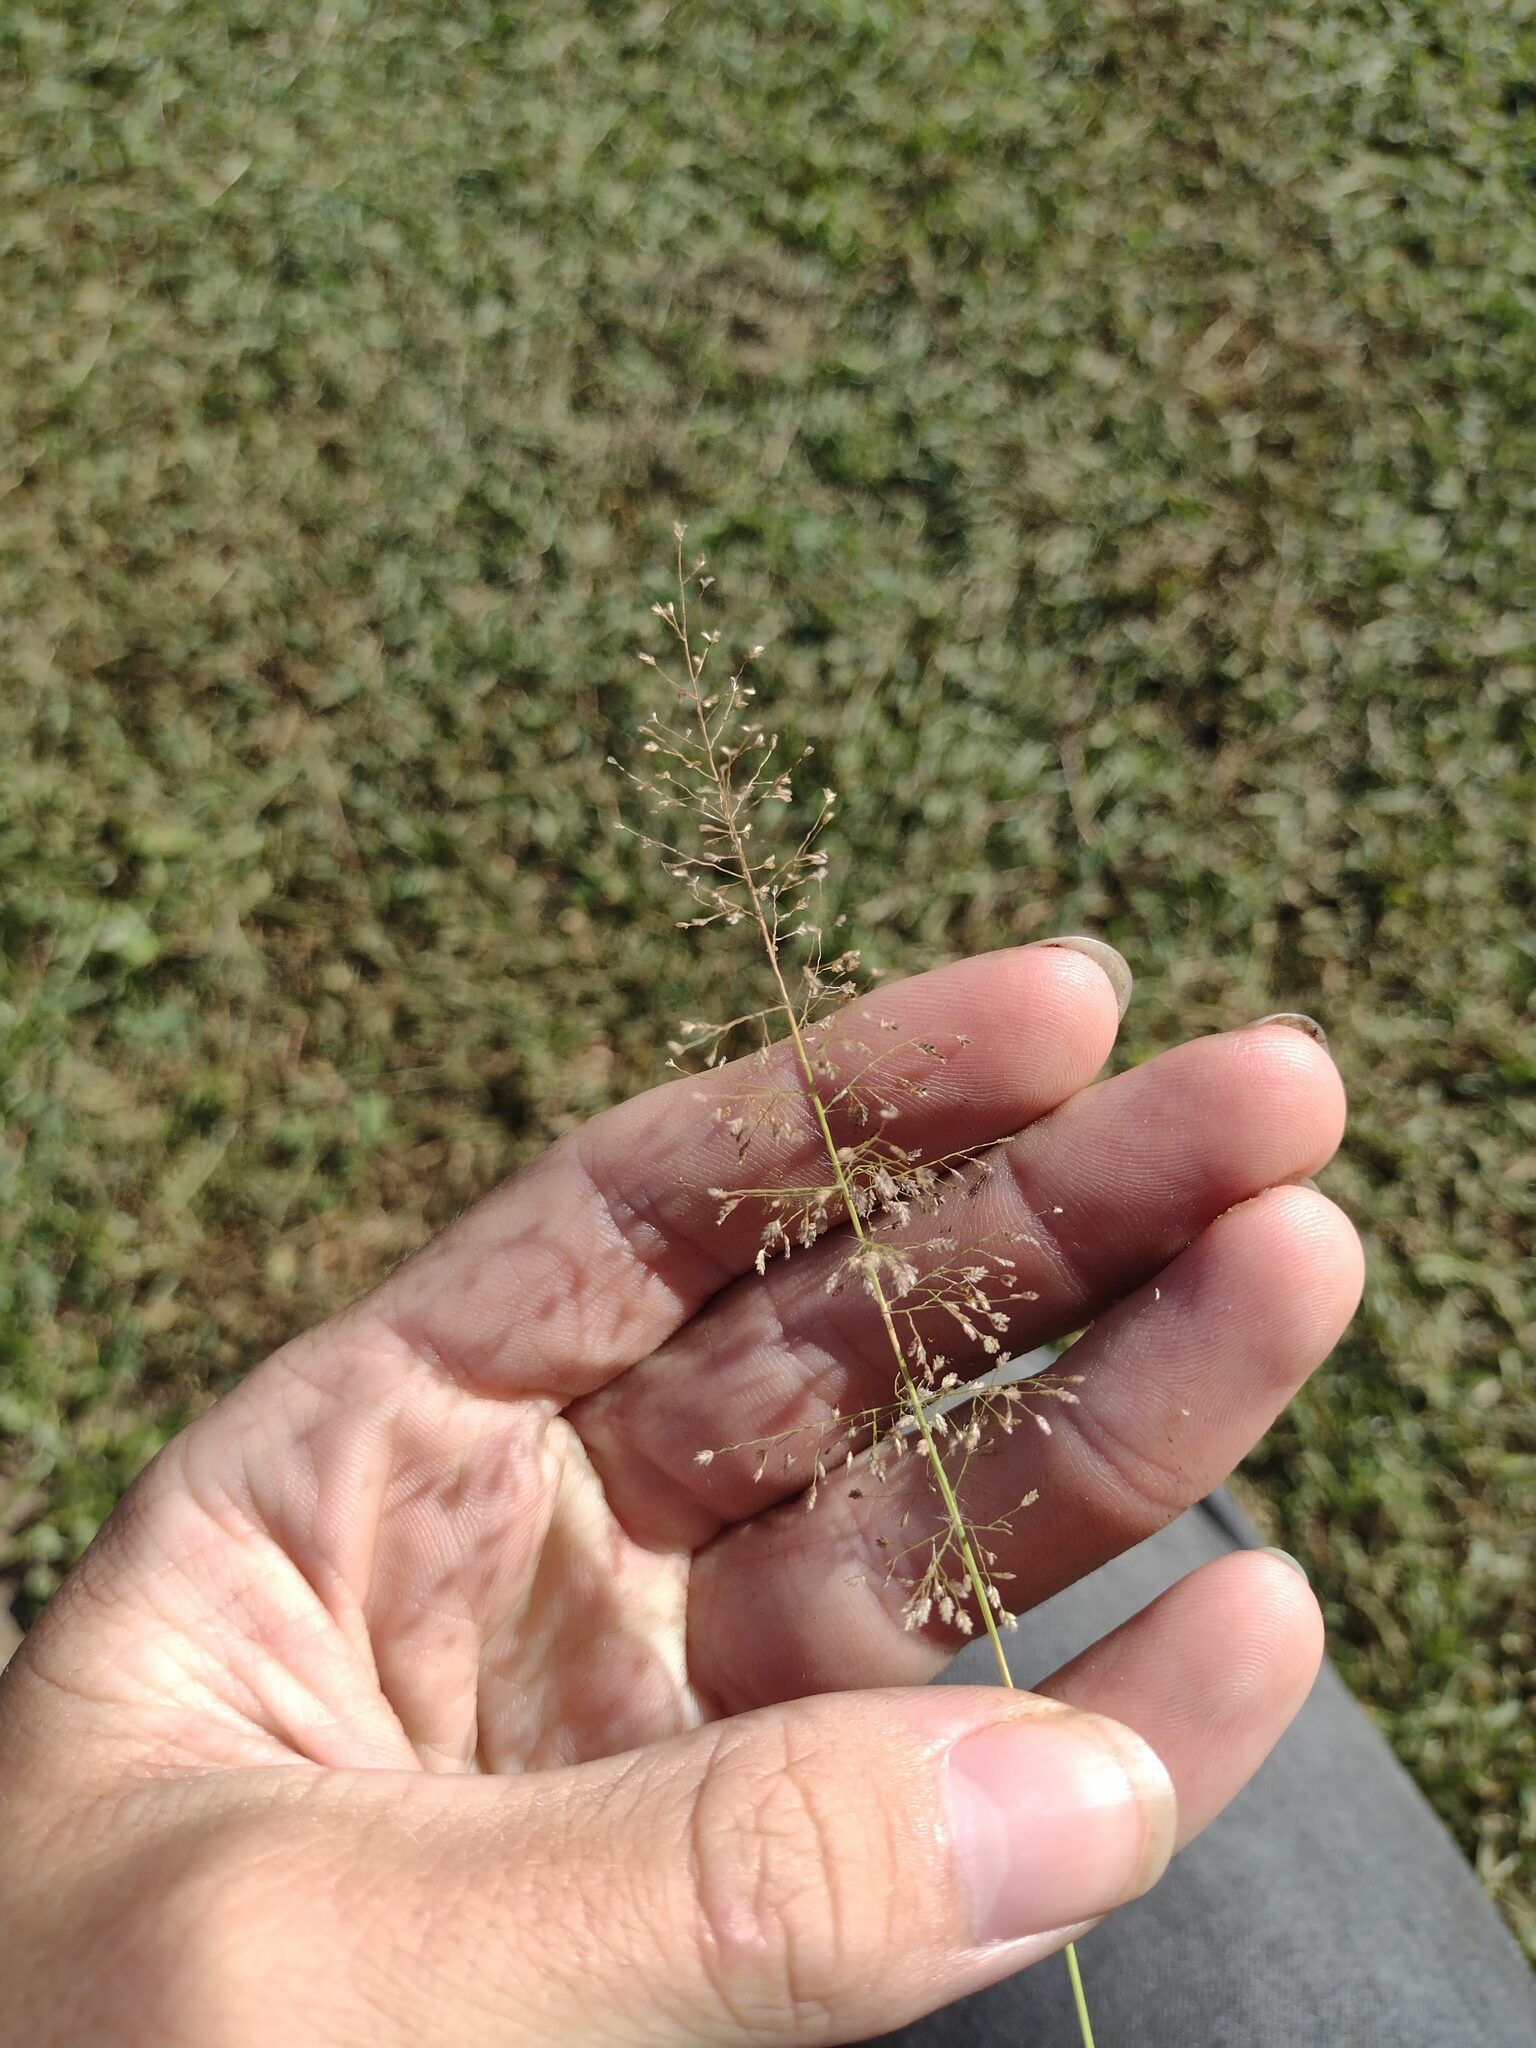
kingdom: Plantae
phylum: Tracheophyta
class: Liliopsida
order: Poales
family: Poaceae
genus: Eragrostis
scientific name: Eragrostis tenella
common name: Japanese lovegrass
